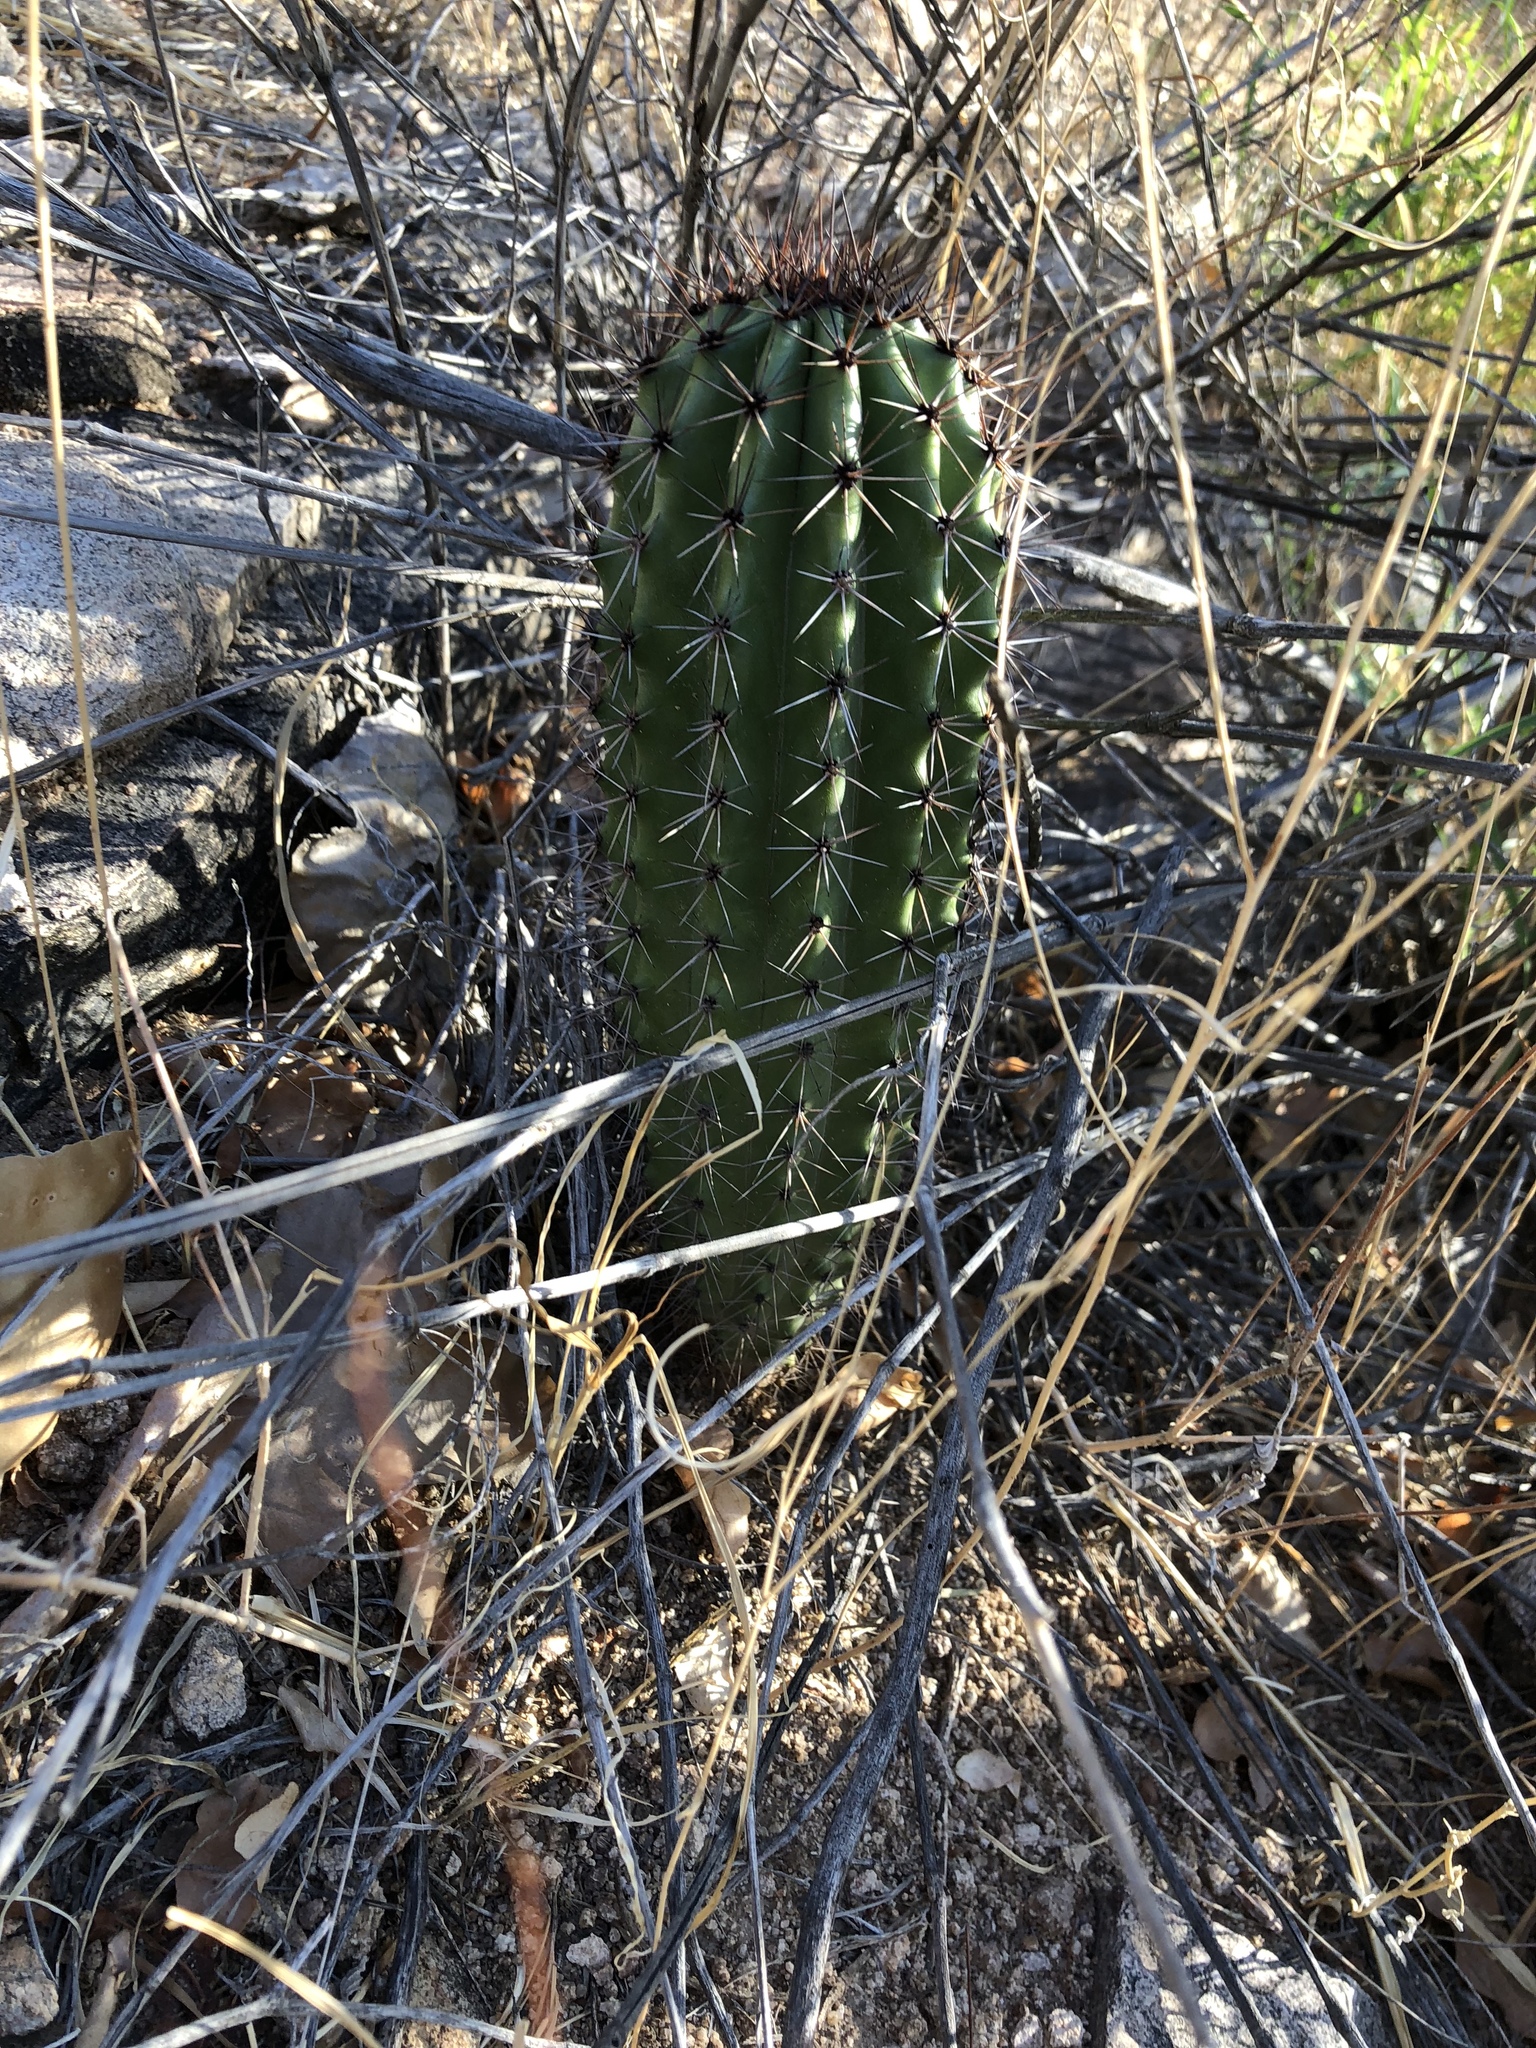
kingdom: Plantae
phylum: Tracheophyta
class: Magnoliopsida
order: Caryophyllales
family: Cactaceae
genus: Stenocereus
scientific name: Stenocereus thurberi
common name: Organ pipe cactus
